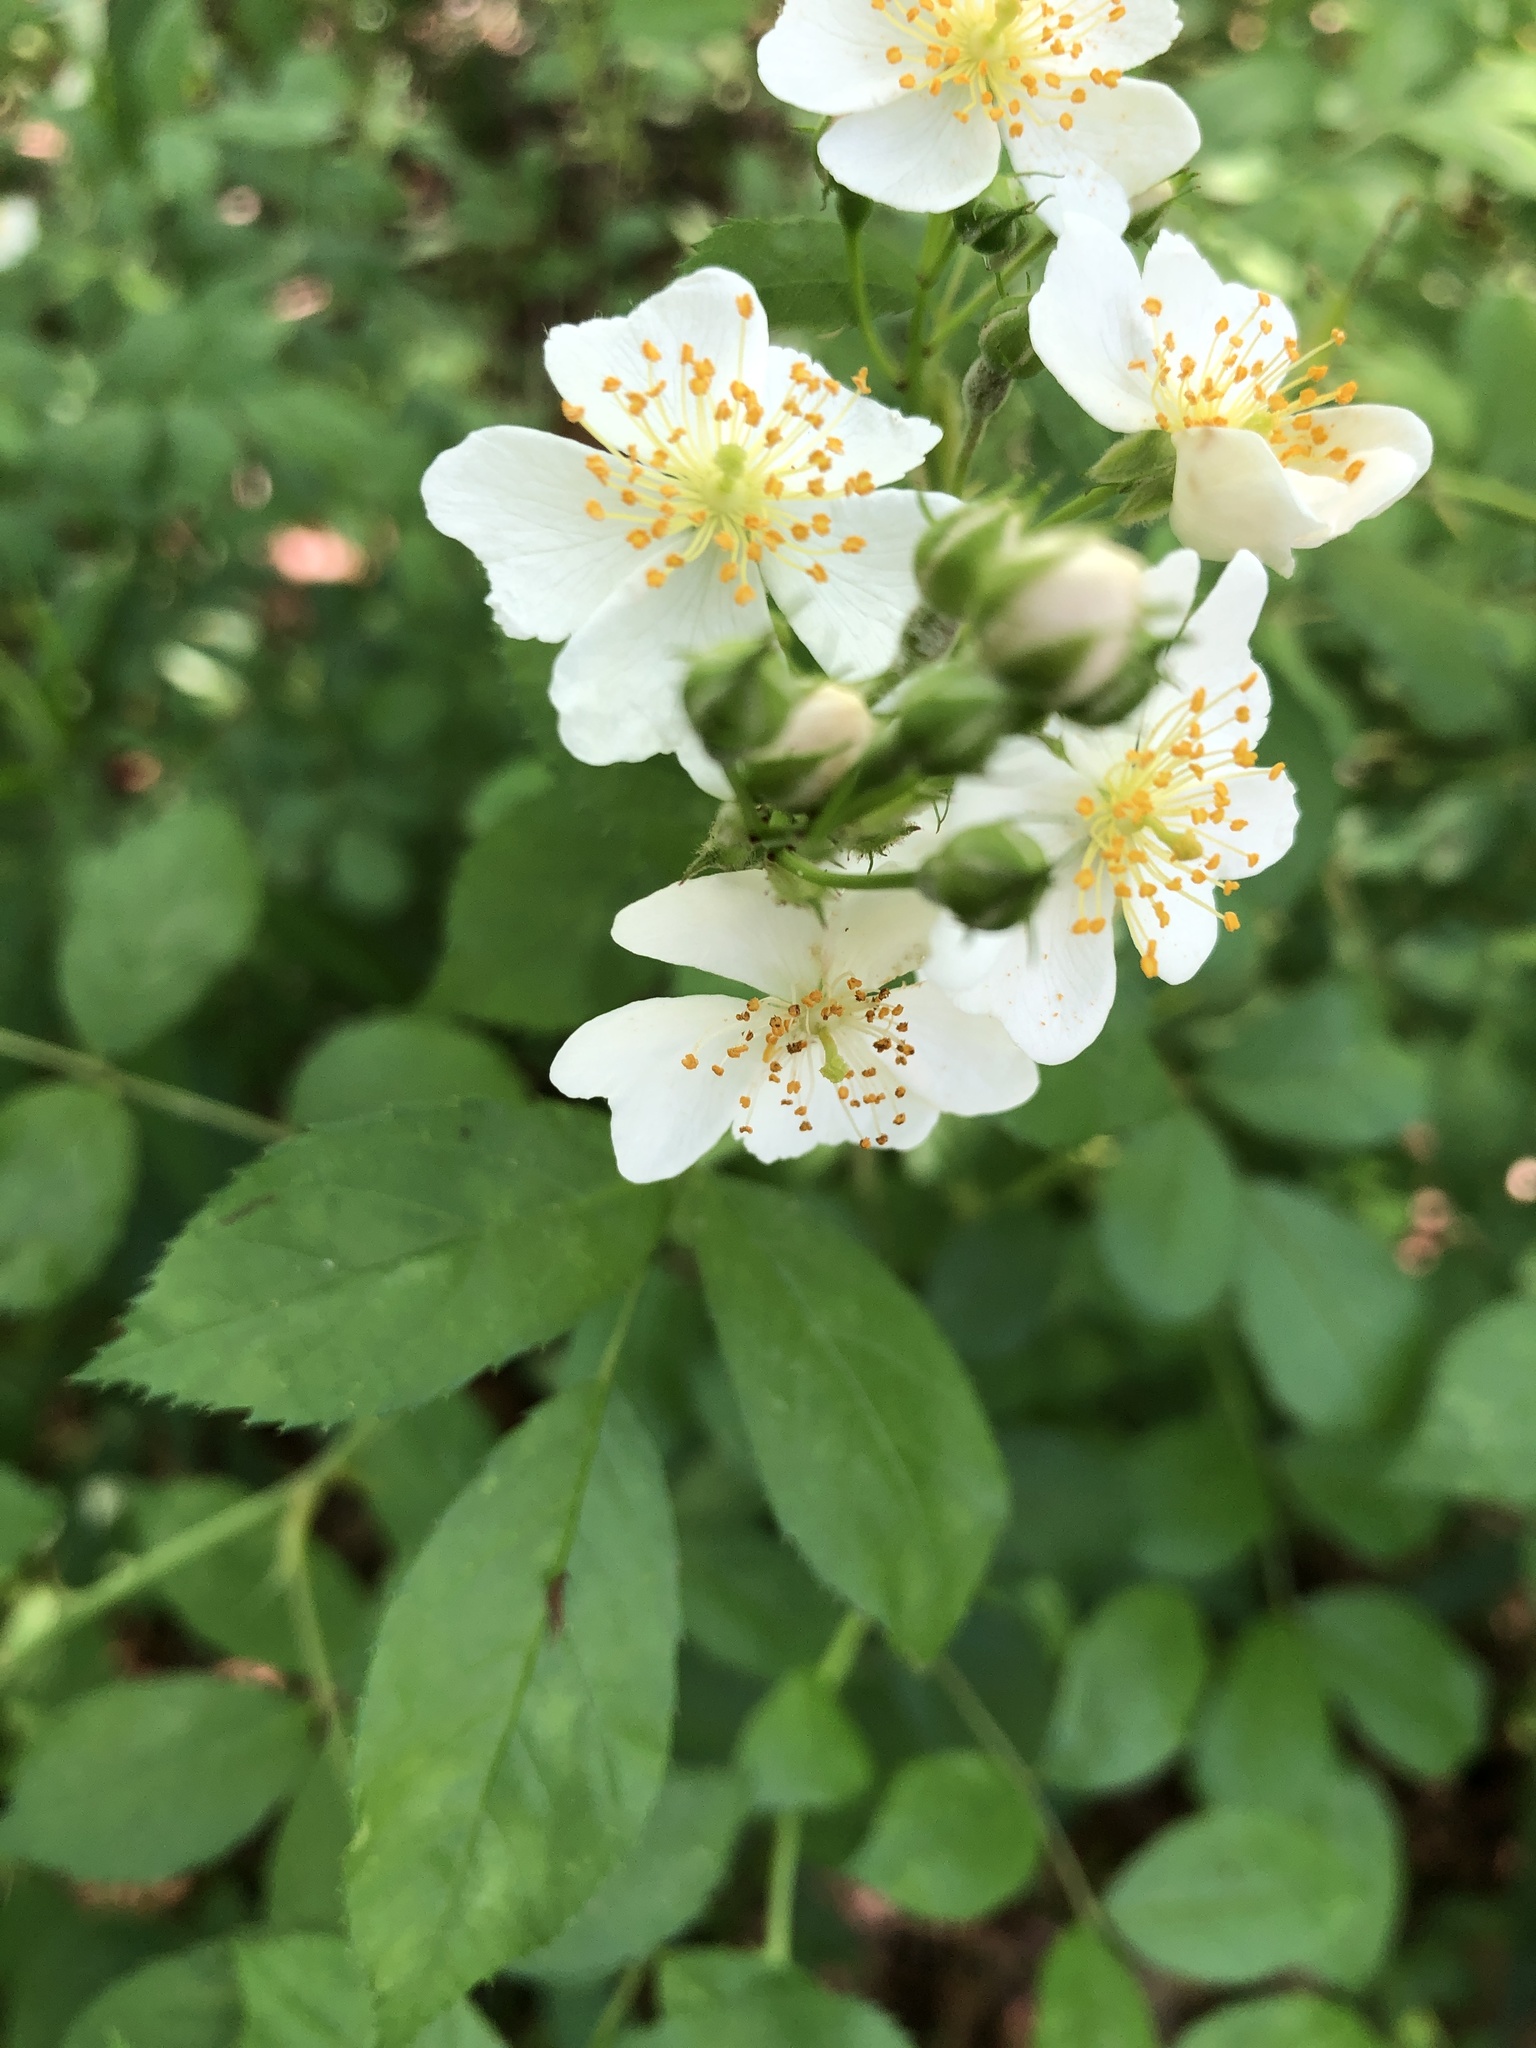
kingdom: Plantae
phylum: Tracheophyta
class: Magnoliopsida
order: Rosales
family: Rosaceae
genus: Rosa
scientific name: Rosa multiflora
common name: Multiflora rose
